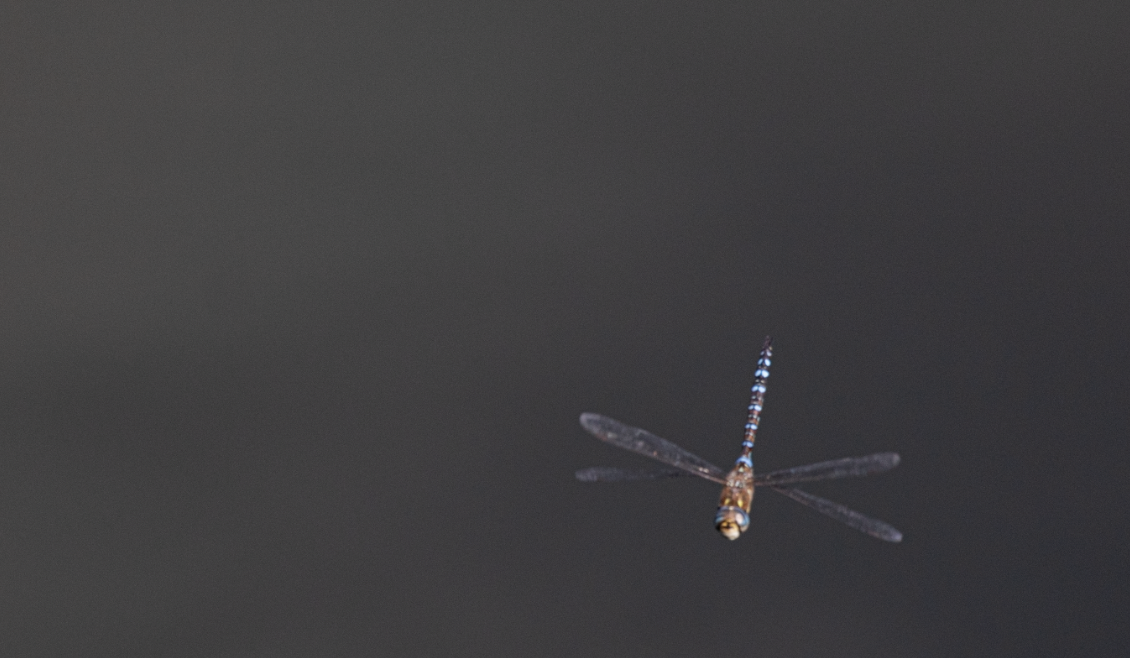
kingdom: Animalia
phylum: Arthropoda
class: Insecta
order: Odonata
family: Aeshnidae
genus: Aeshna
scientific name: Aeshna mixta
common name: Migrant hawker
